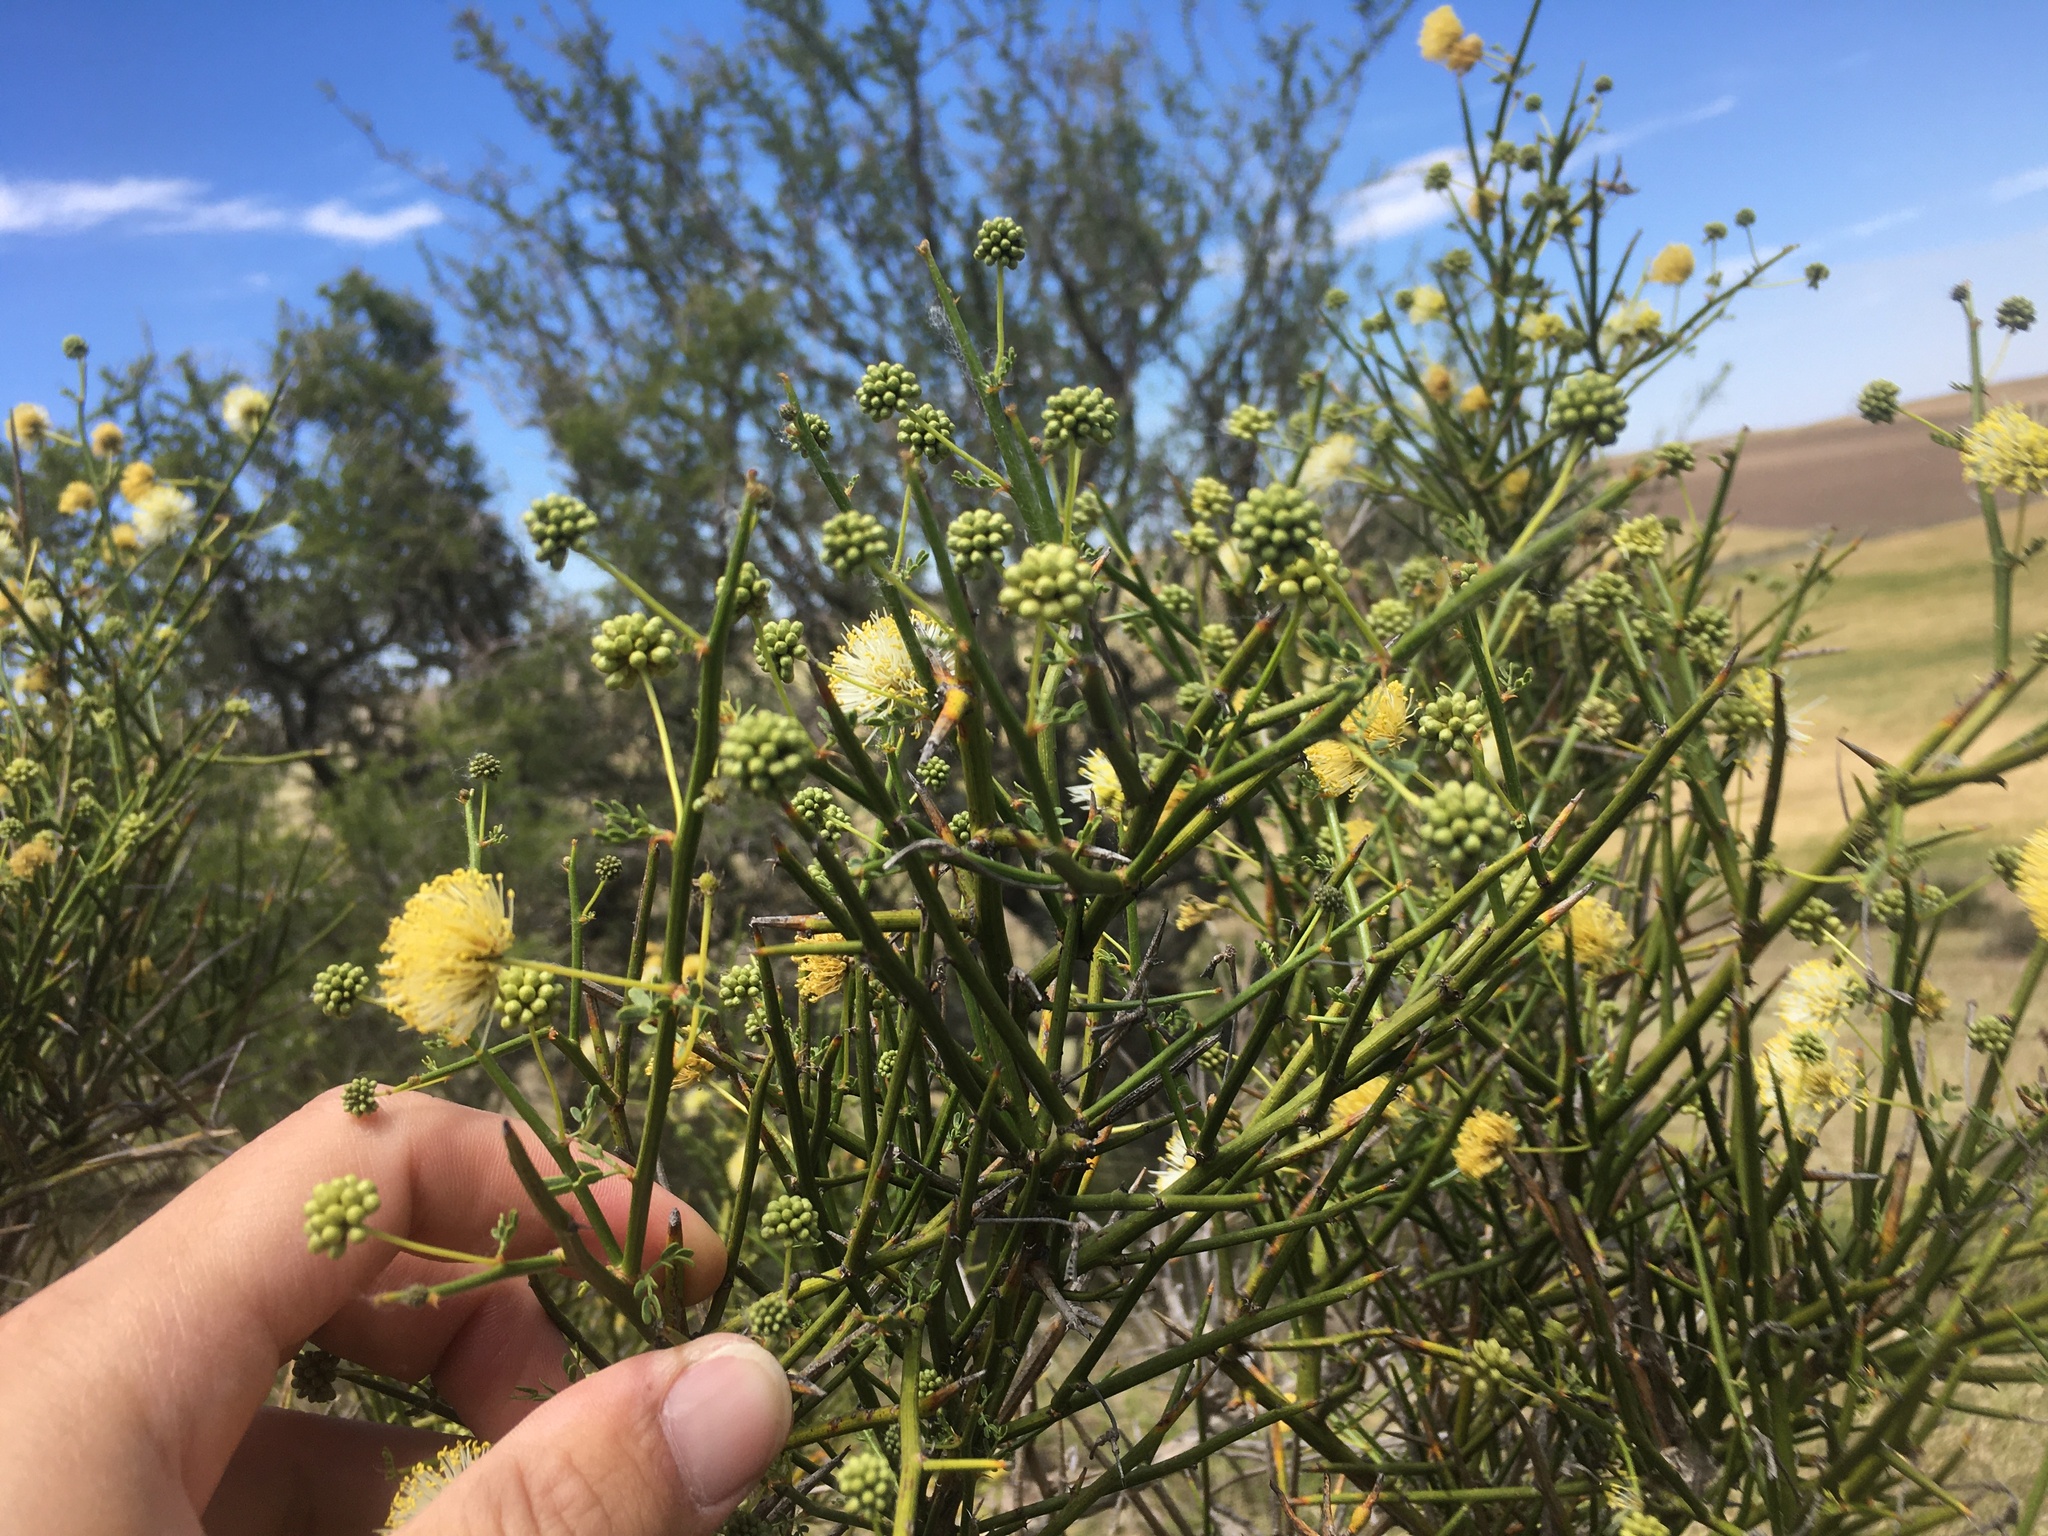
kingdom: Plantae
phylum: Tracheophyta
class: Magnoliopsida
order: Fabales
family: Fabaceae
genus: Prosopidastrum
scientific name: Prosopidastrum globosum
